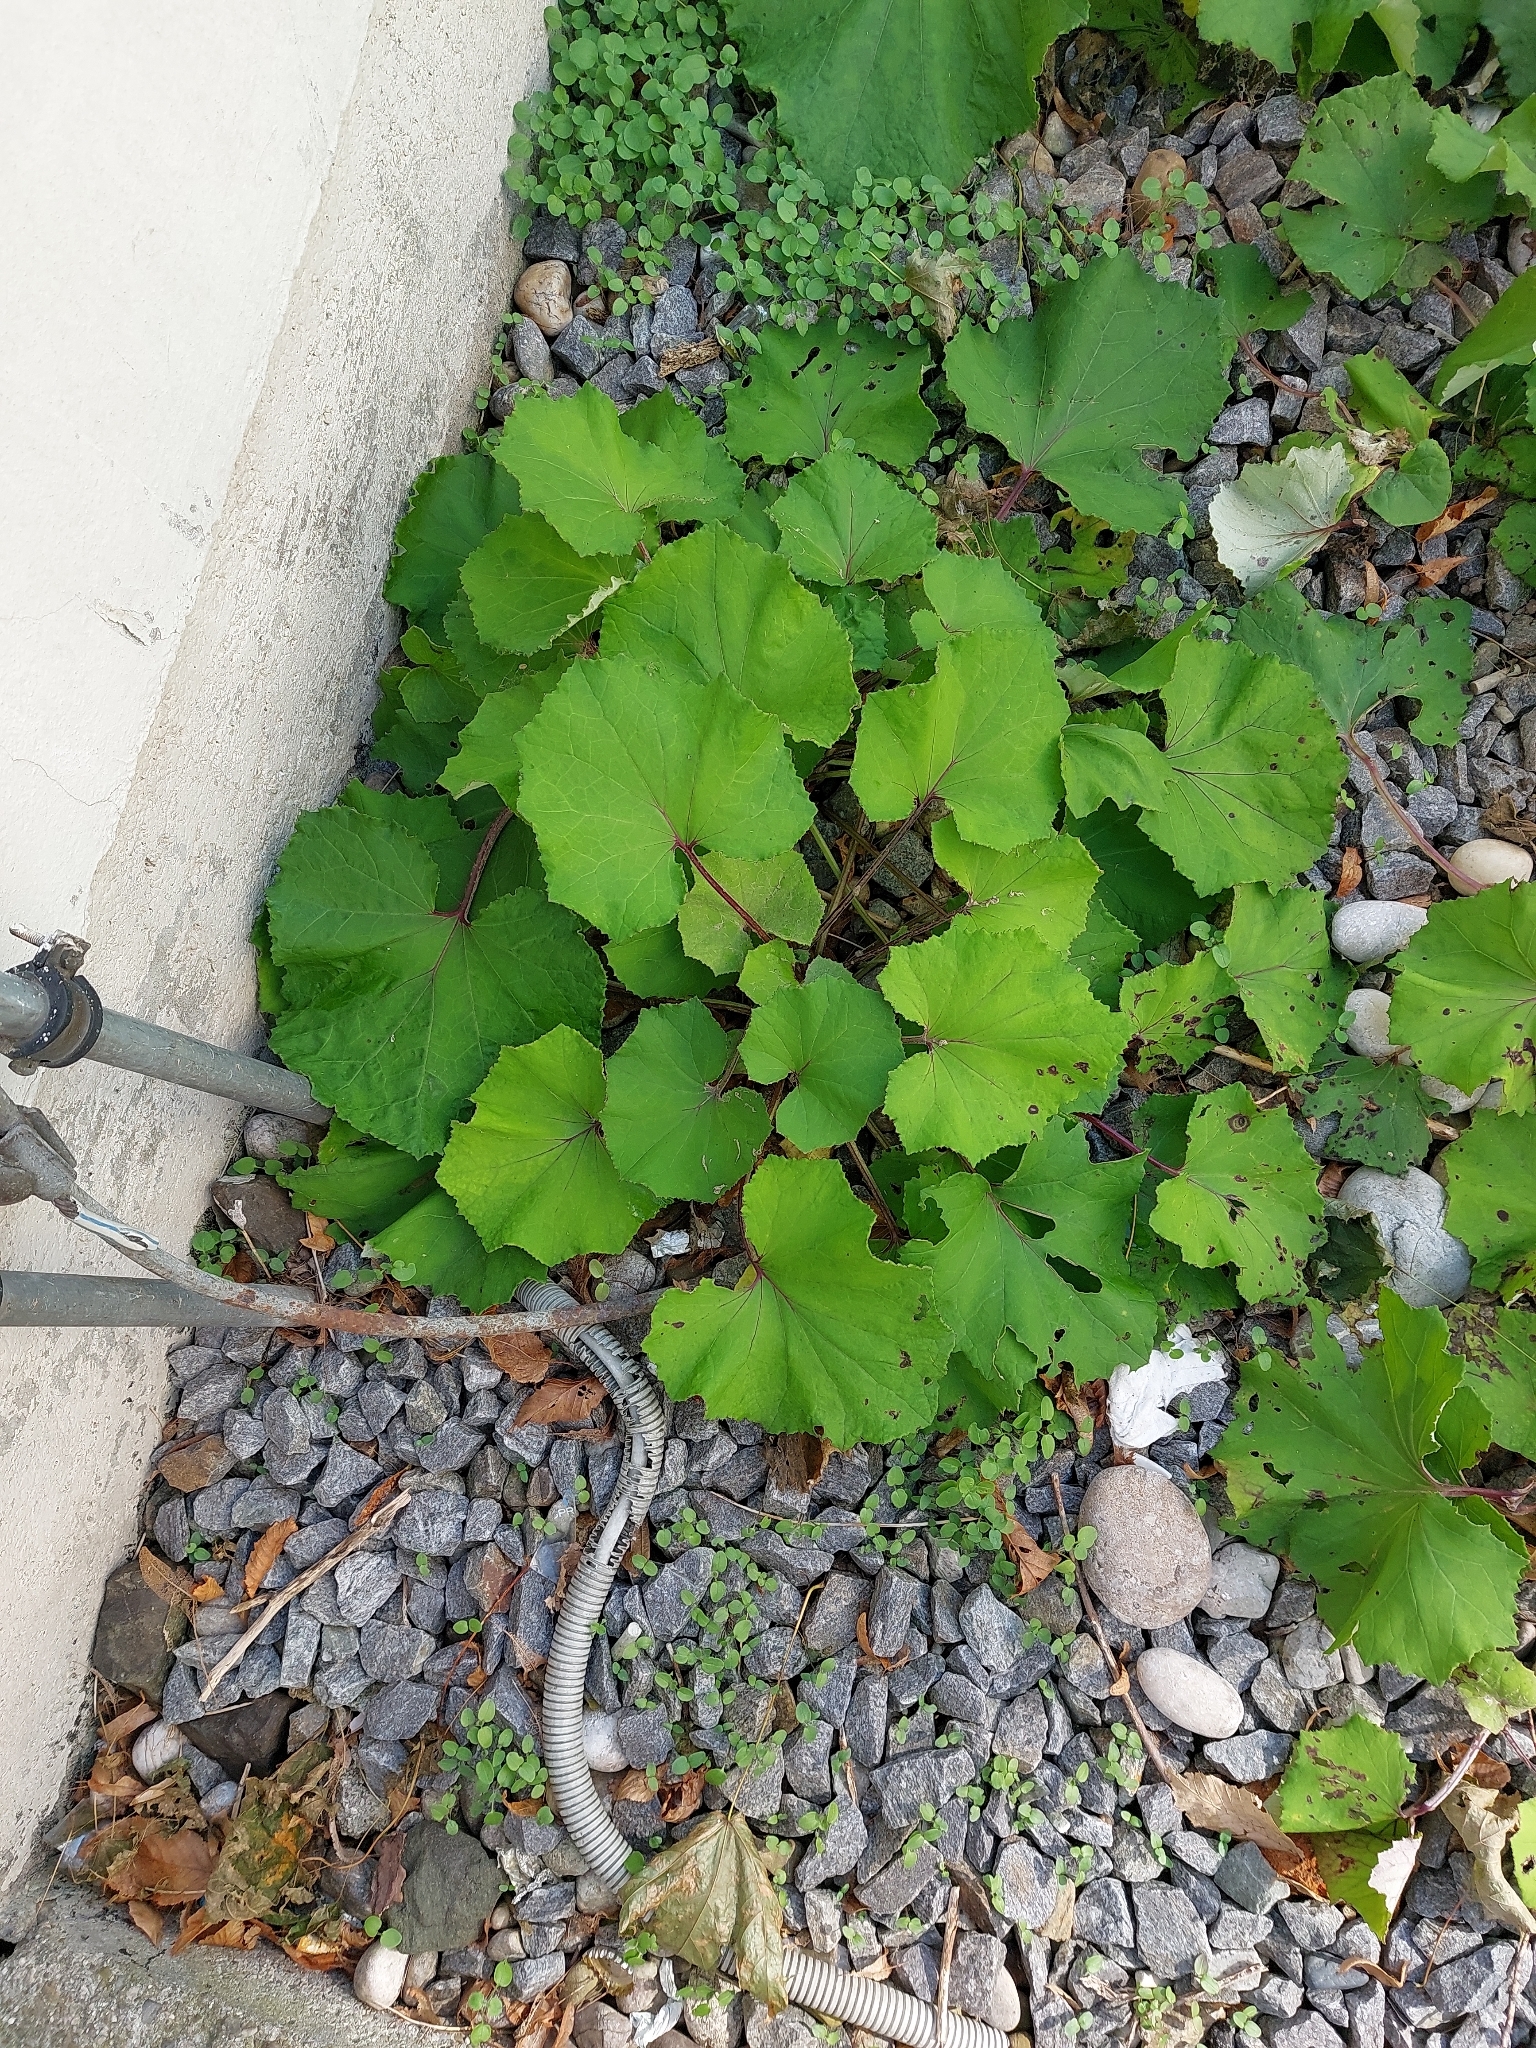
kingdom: Plantae
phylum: Tracheophyta
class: Magnoliopsida
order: Asterales
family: Asteraceae
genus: Tussilago
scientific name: Tussilago farfara
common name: Coltsfoot
